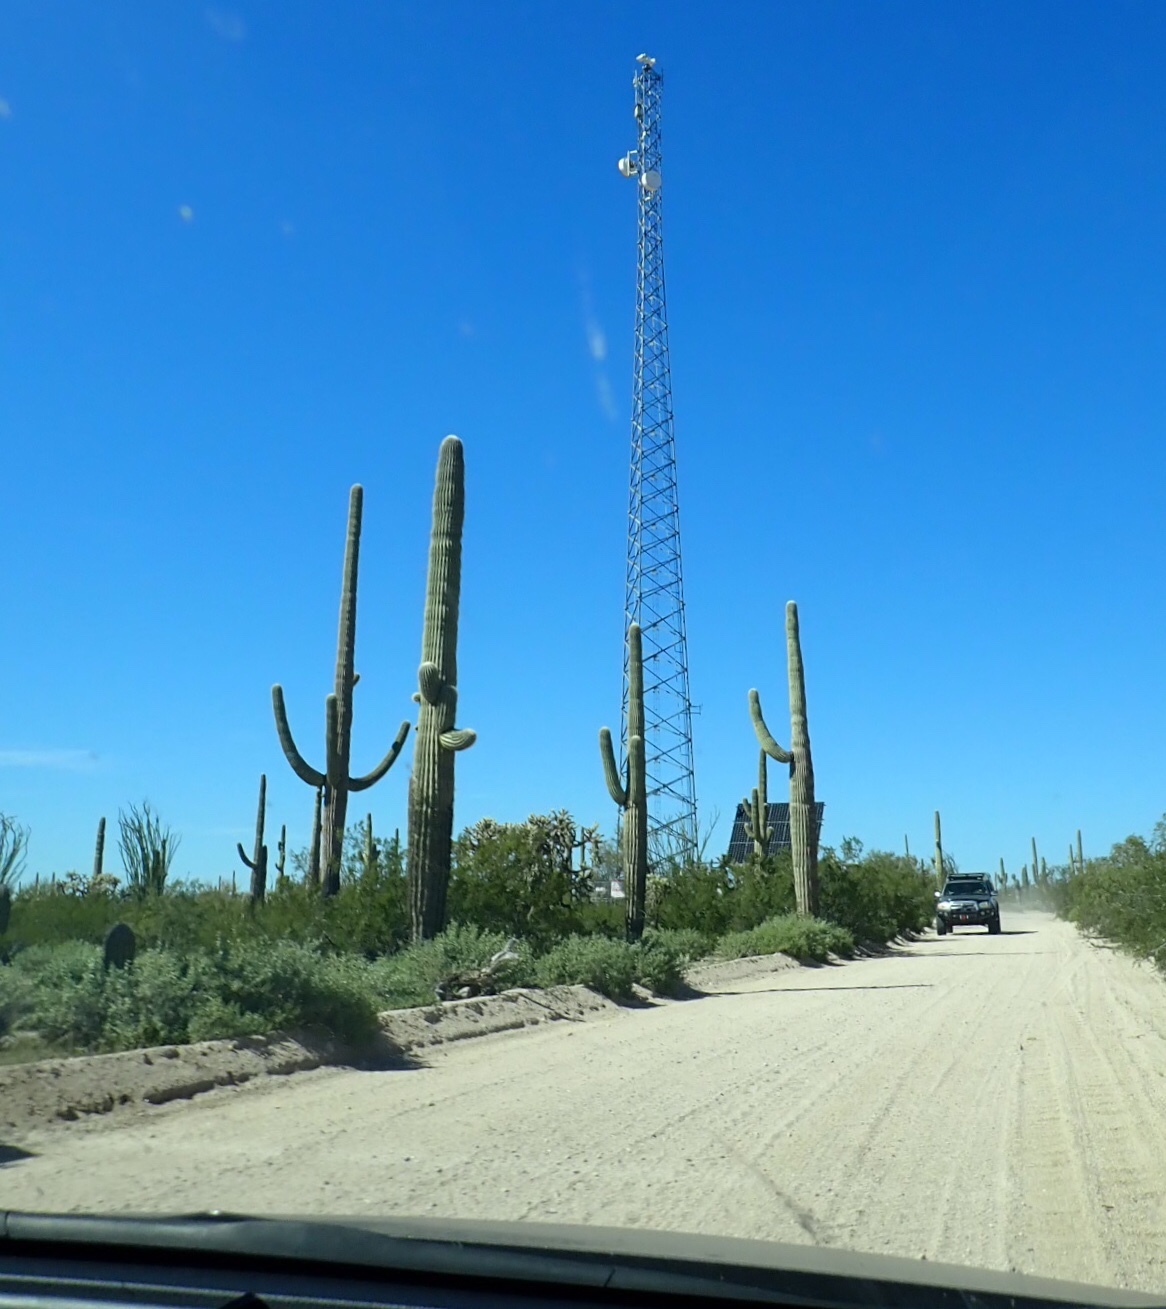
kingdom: Plantae
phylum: Tracheophyta
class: Magnoliopsida
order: Caryophyllales
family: Cactaceae
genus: Carnegiea
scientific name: Carnegiea gigantea
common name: Saguaro
